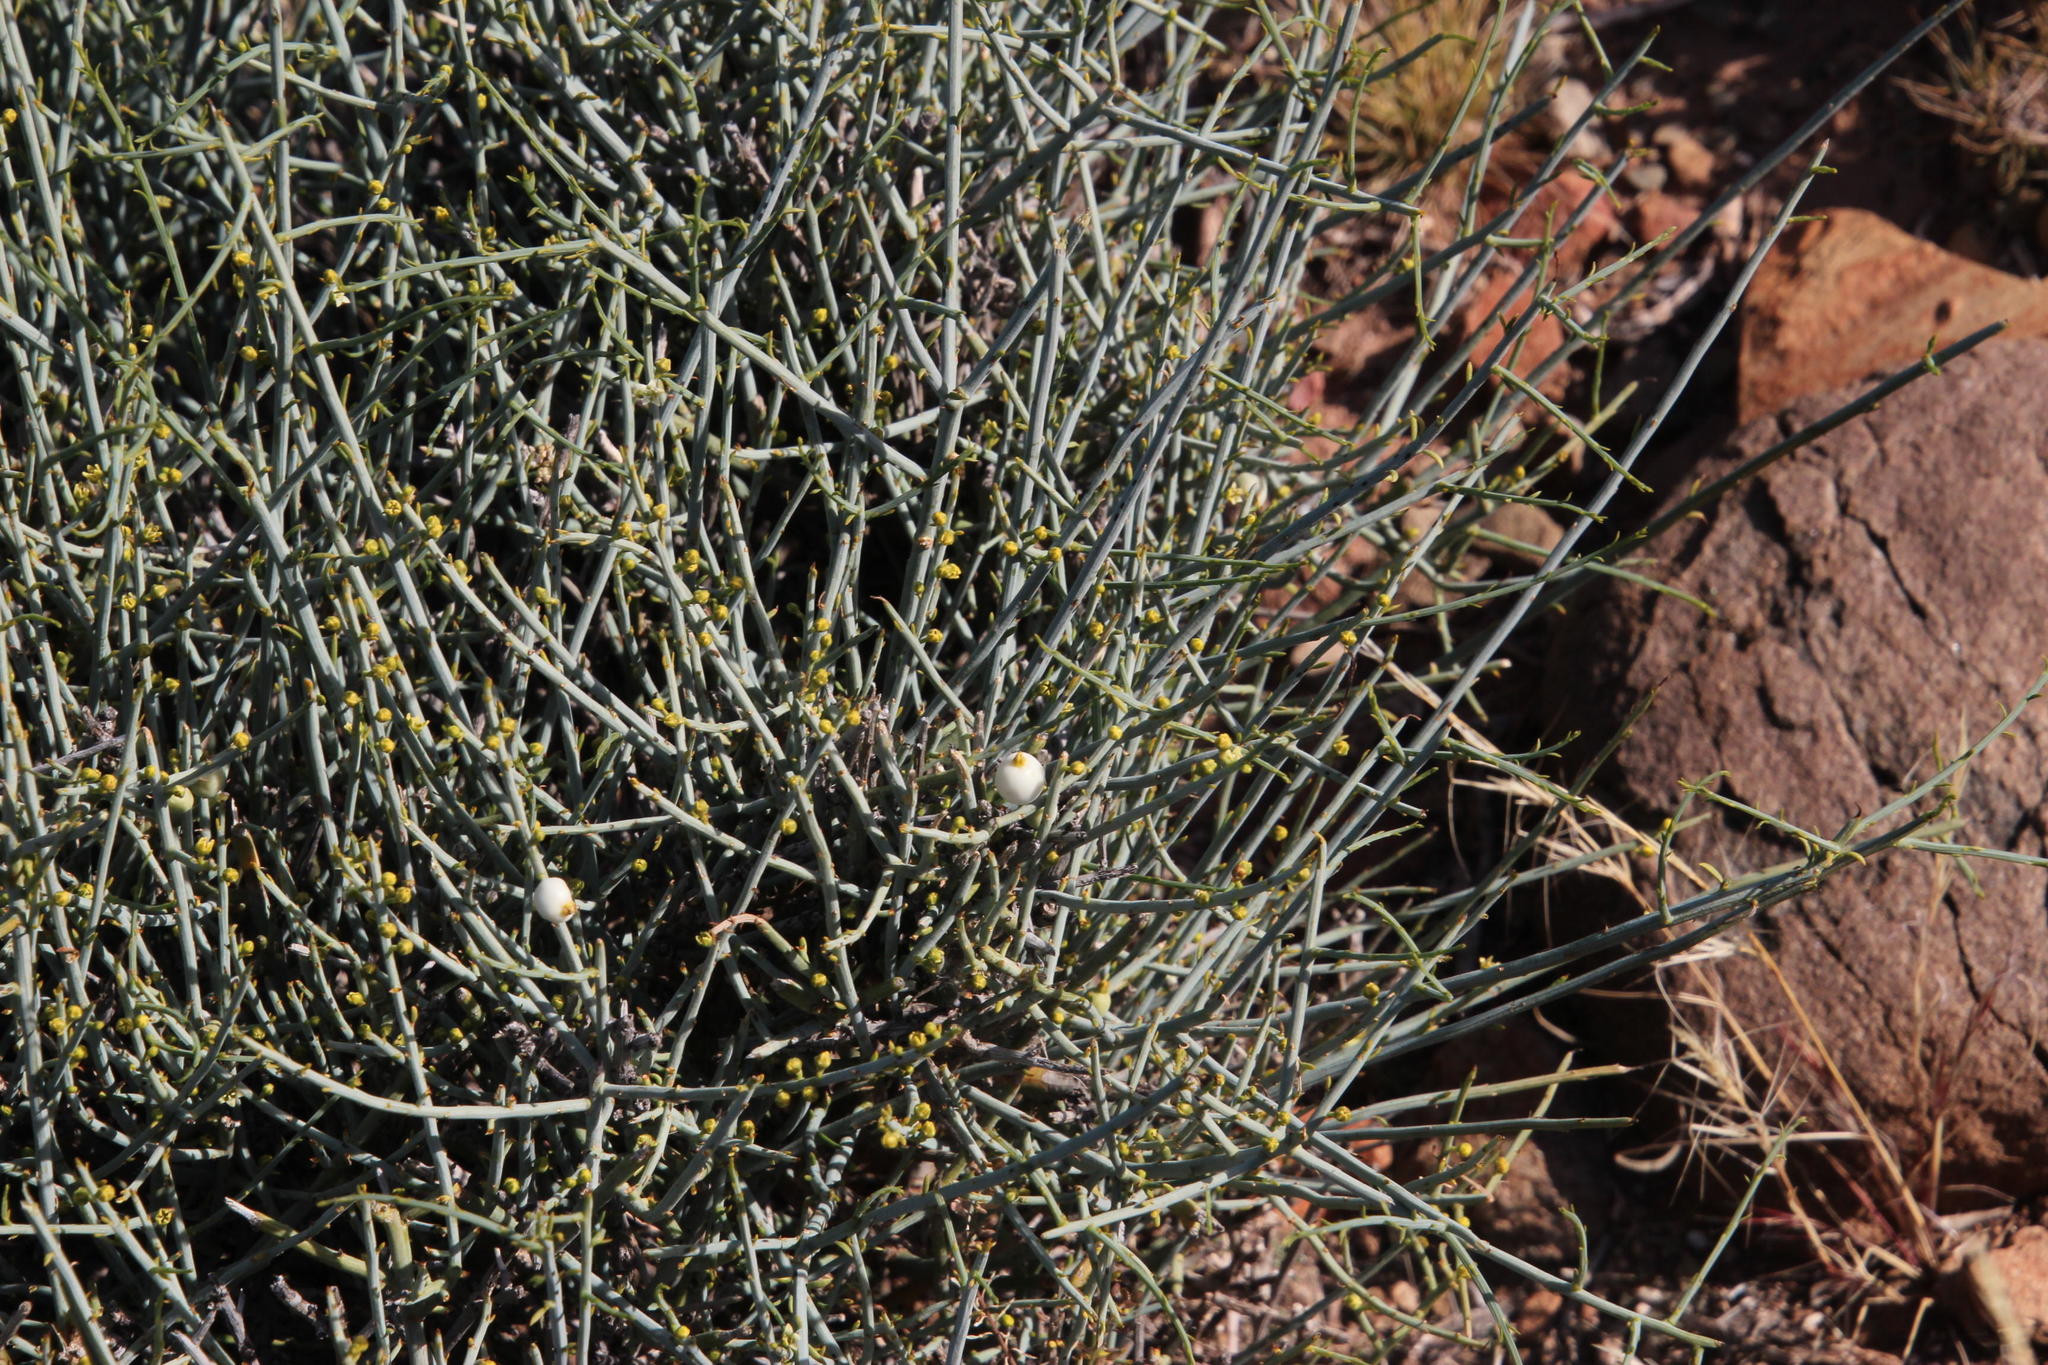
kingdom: Plantae
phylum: Tracheophyta
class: Magnoliopsida
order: Santalales
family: Thesiaceae
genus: Lacomucinaea
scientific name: Lacomucinaea lineata
